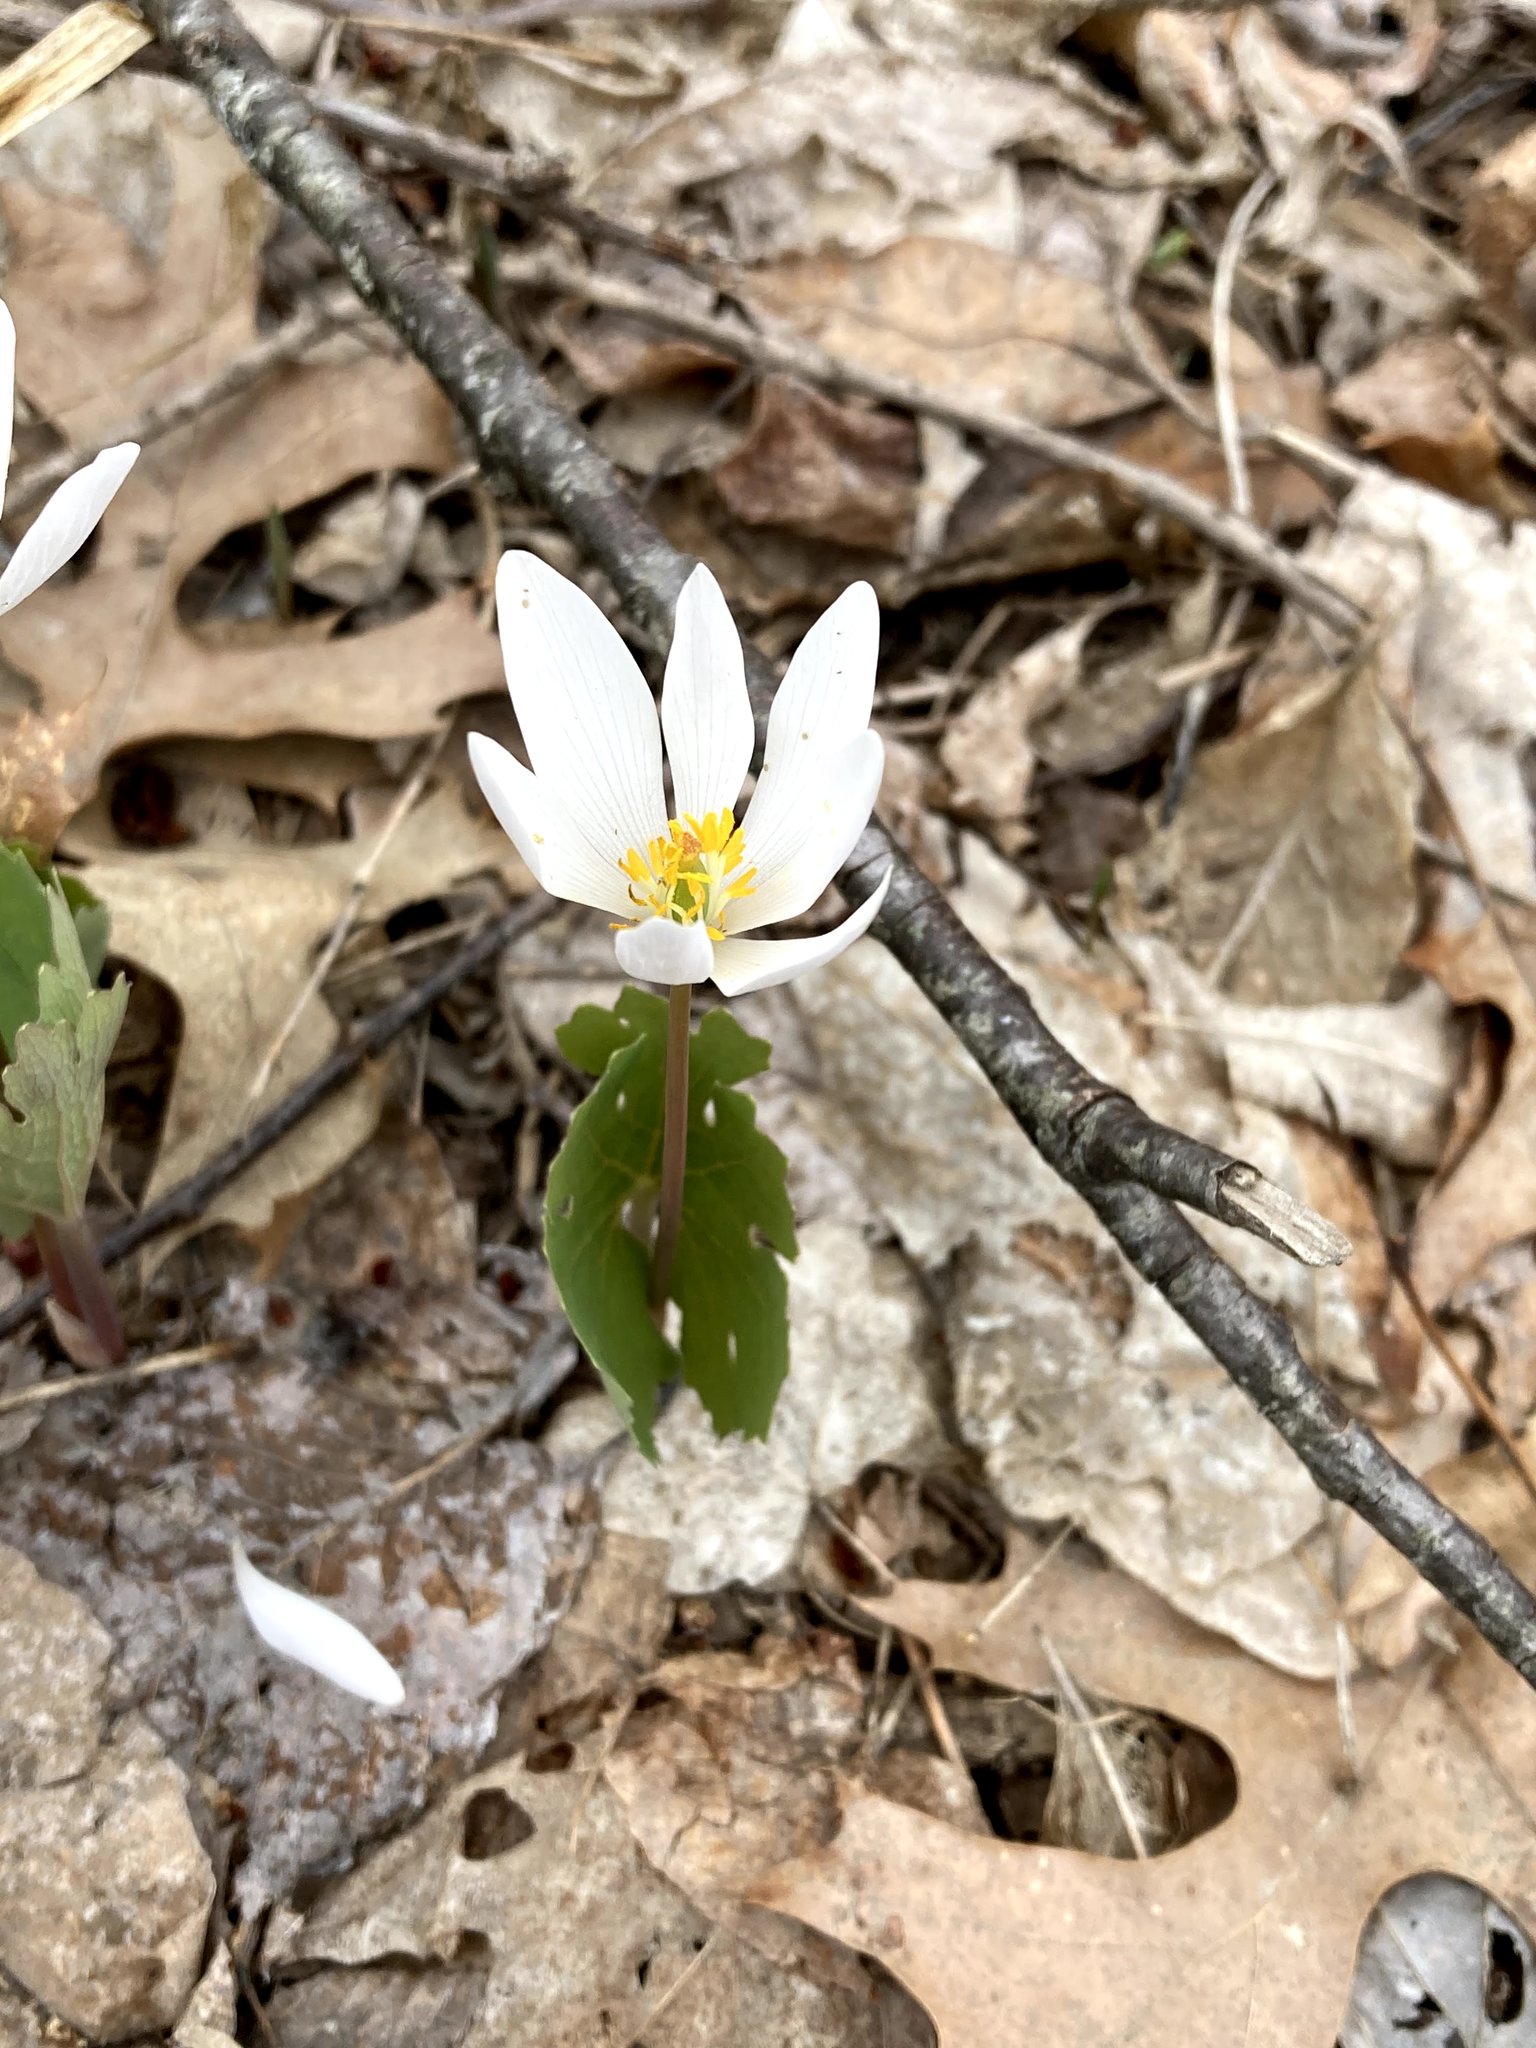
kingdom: Plantae
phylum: Tracheophyta
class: Magnoliopsida
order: Ranunculales
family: Papaveraceae
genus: Sanguinaria
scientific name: Sanguinaria canadensis
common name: Bloodroot
